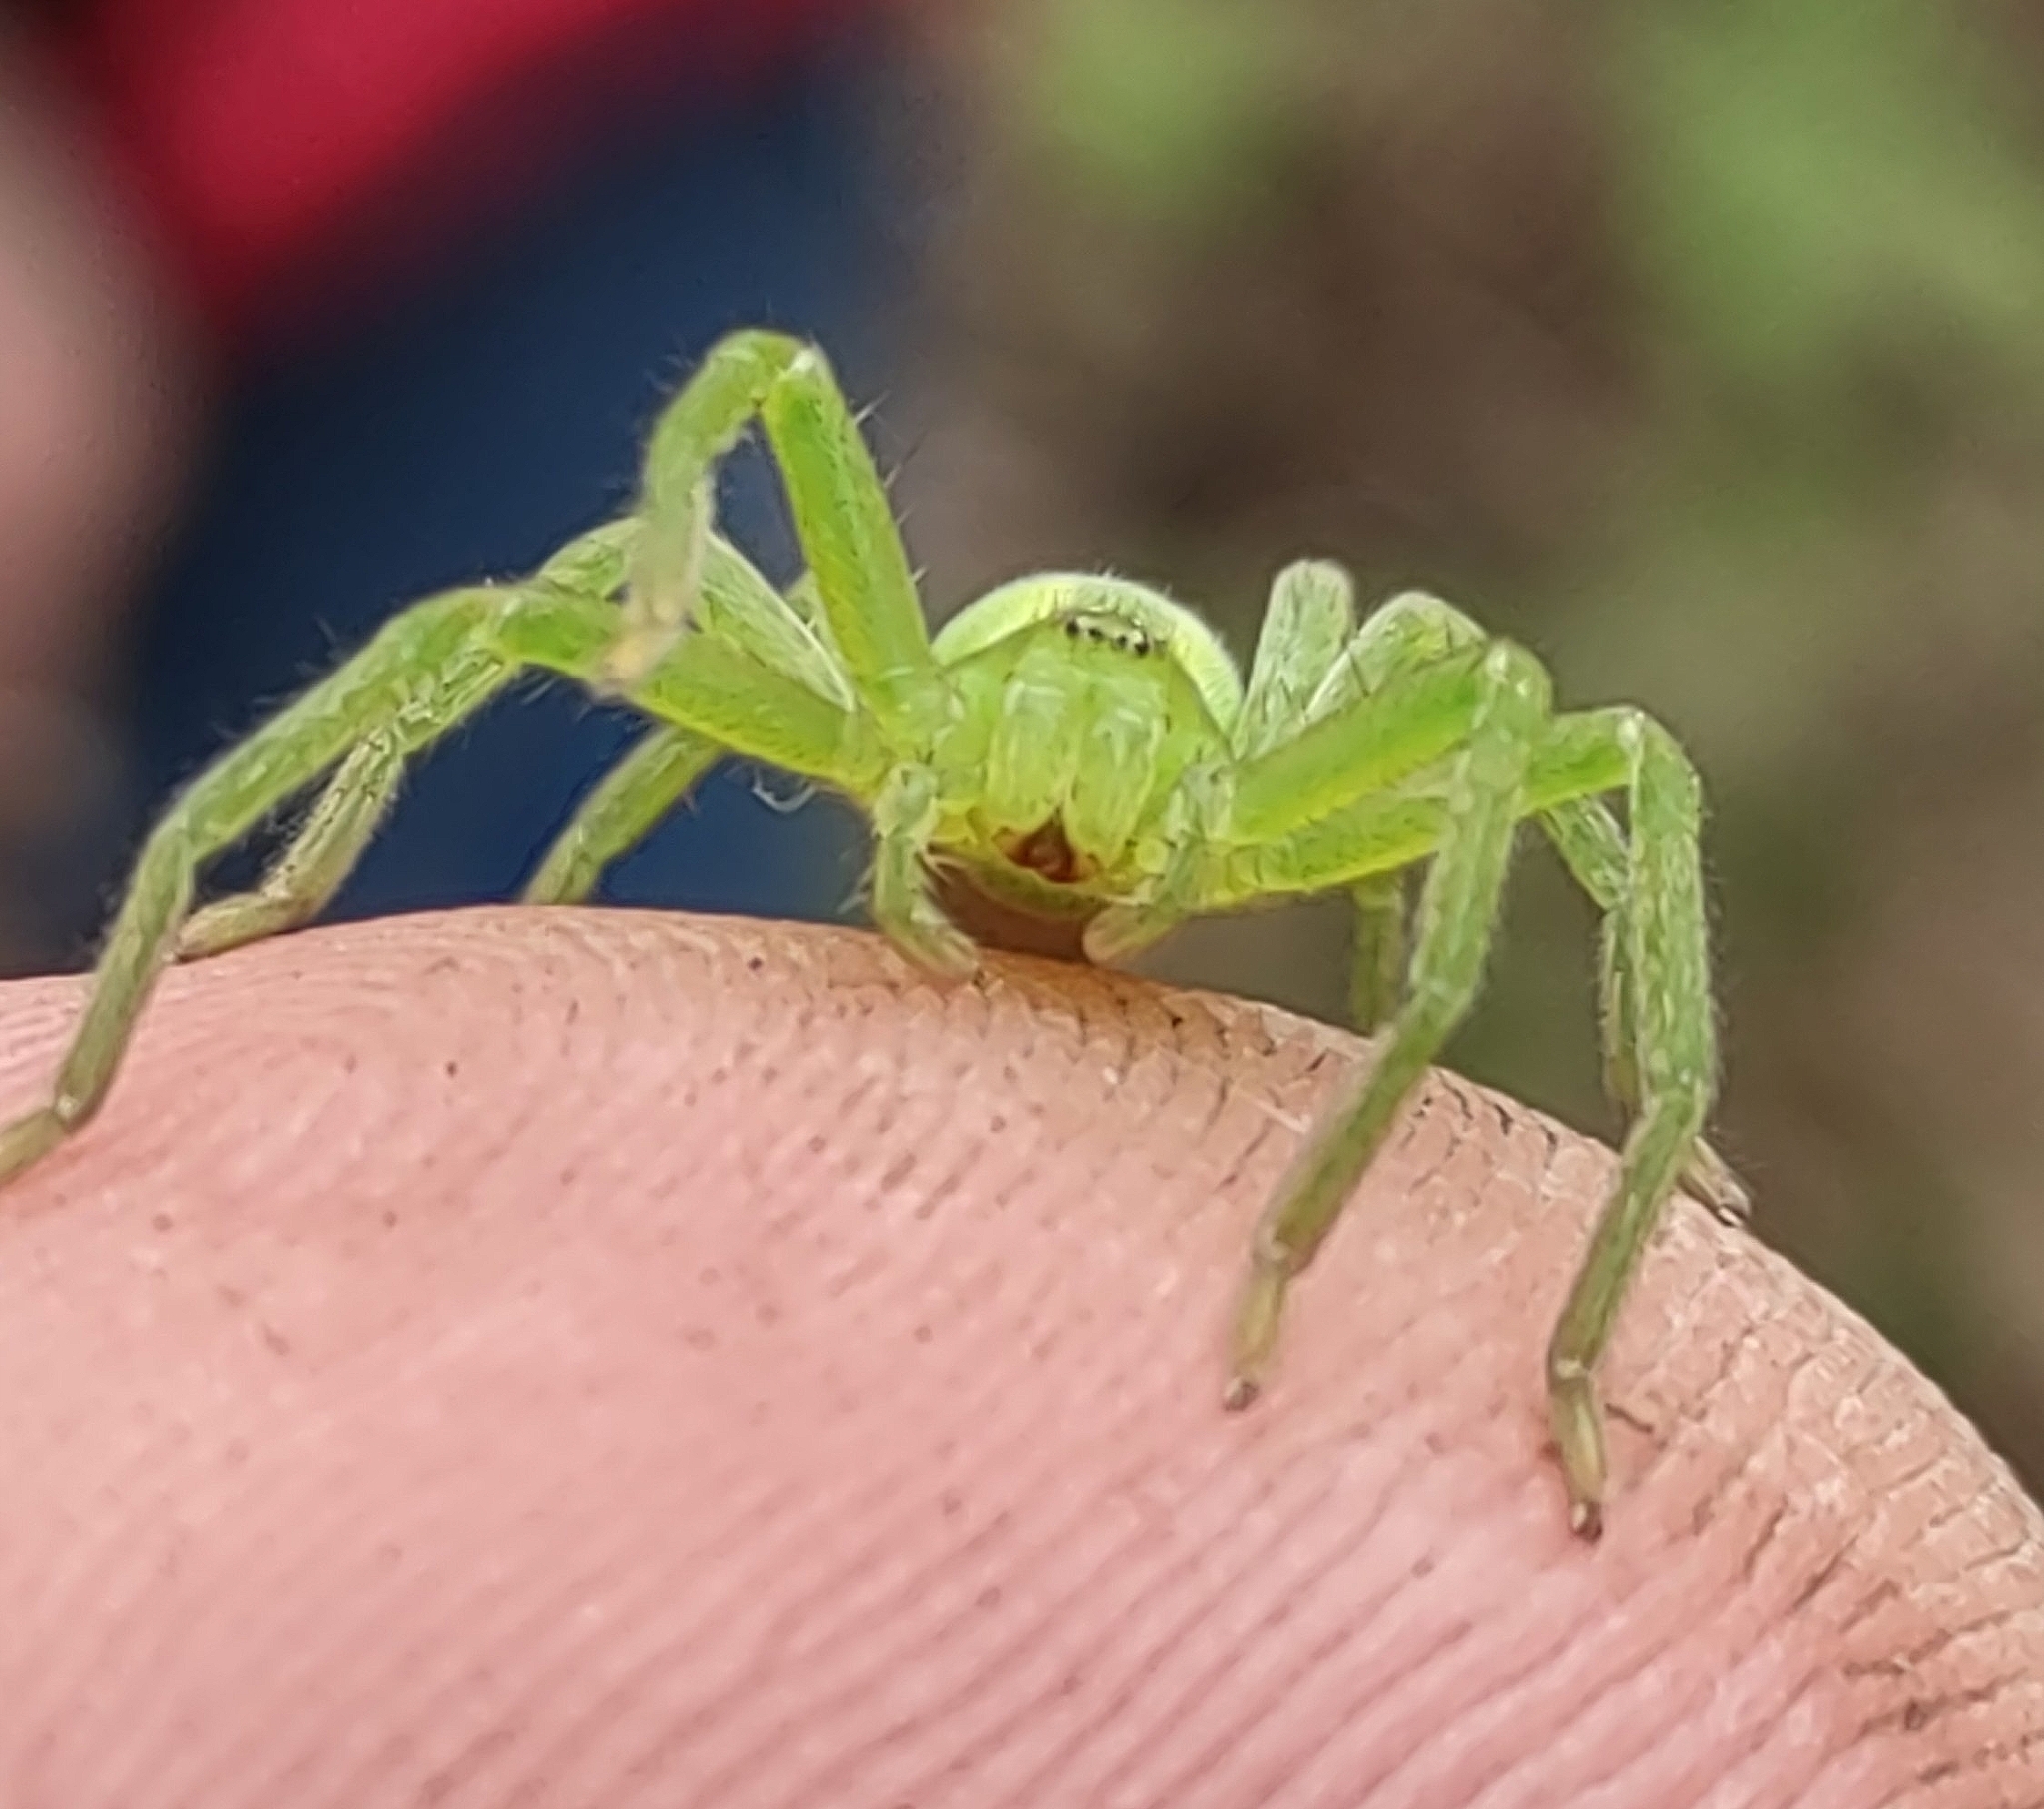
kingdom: Animalia
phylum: Arthropoda
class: Arachnida
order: Araneae
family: Sparassidae
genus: Micrommata
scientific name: Micrommata virescens
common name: Green spider
